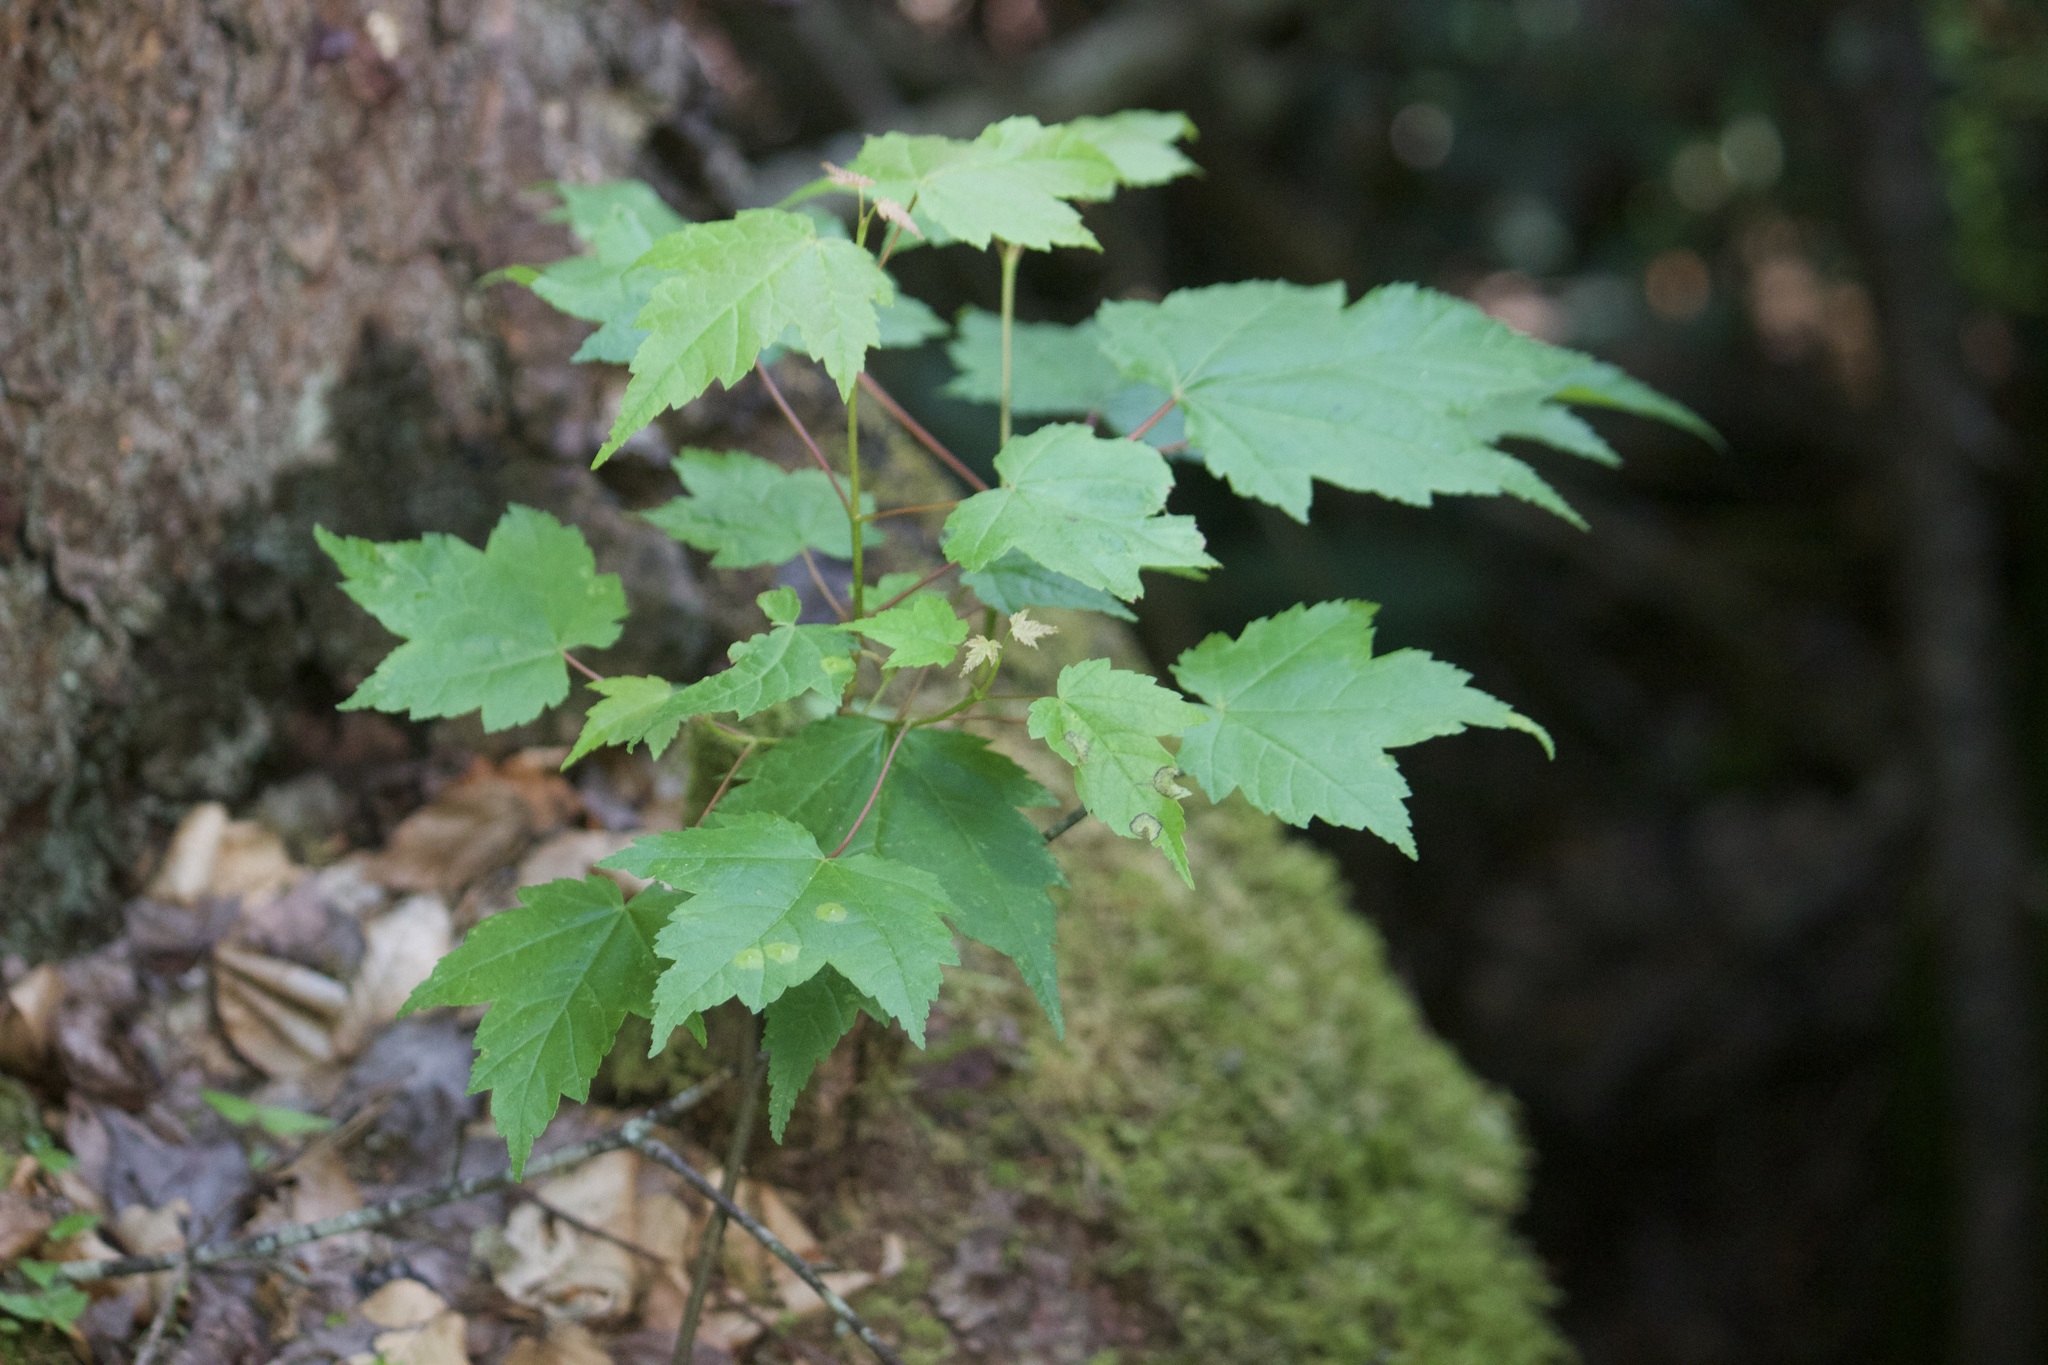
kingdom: Plantae
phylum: Tracheophyta
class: Magnoliopsida
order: Sapindales
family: Sapindaceae
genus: Acer
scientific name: Acer rubrum
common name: Red maple
